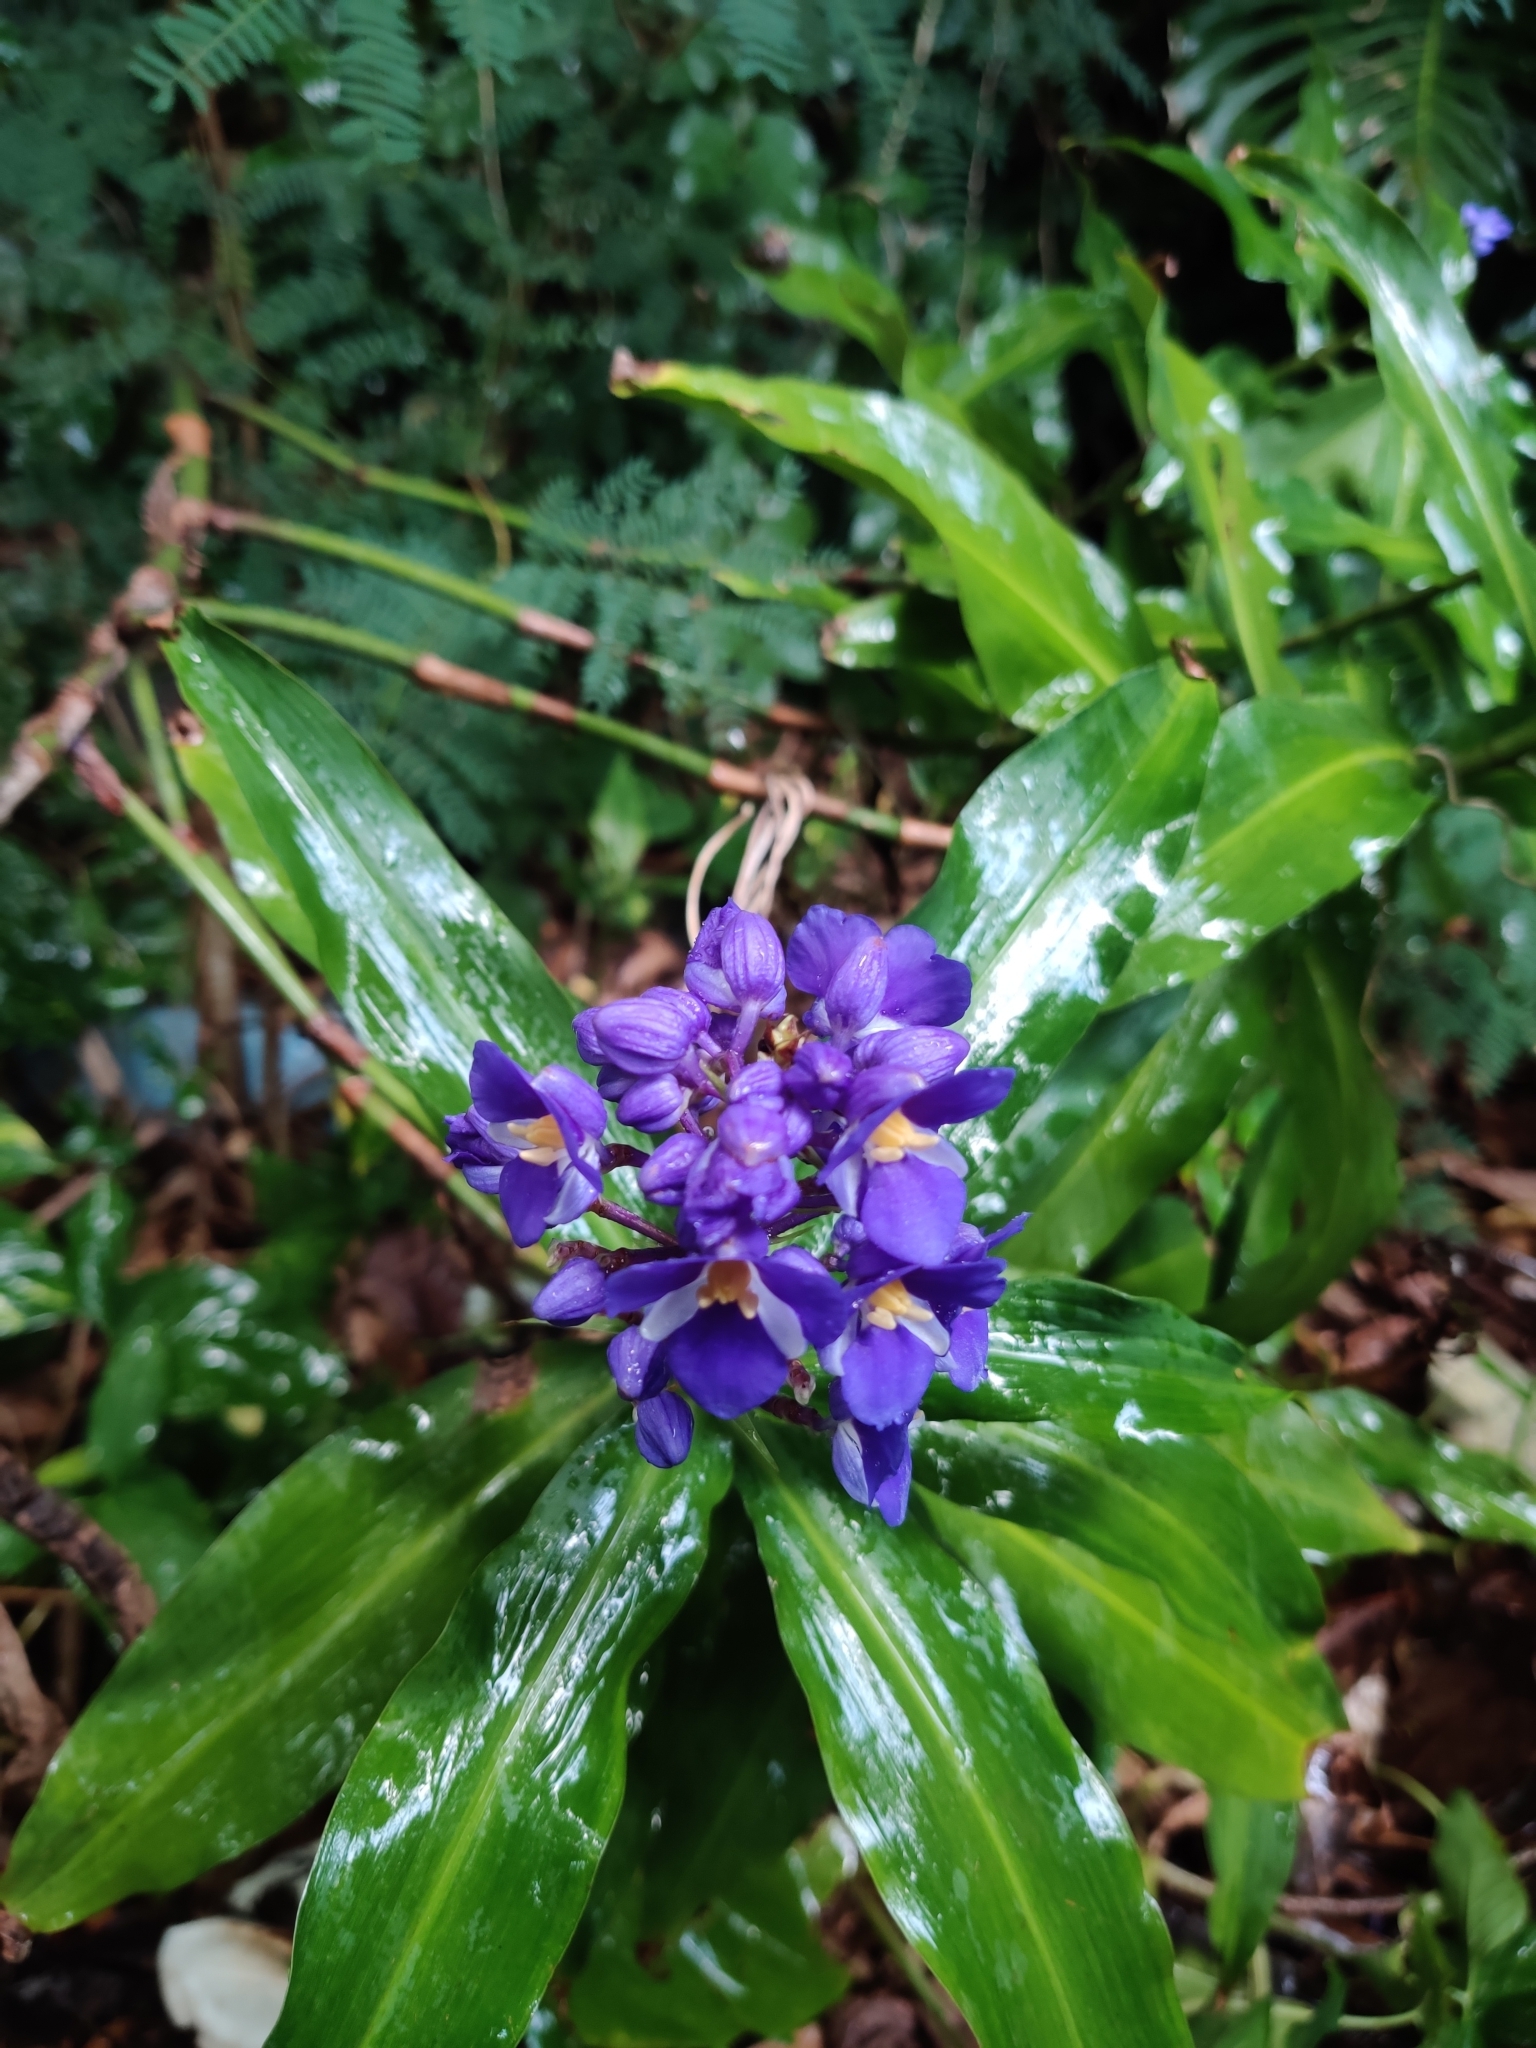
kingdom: Plantae
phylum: Tracheophyta
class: Liliopsida
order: Commelinales
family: Commelinaceae
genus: Dichorisandra
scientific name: Dichorisandra thyrsiflora
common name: Blue-ginger
